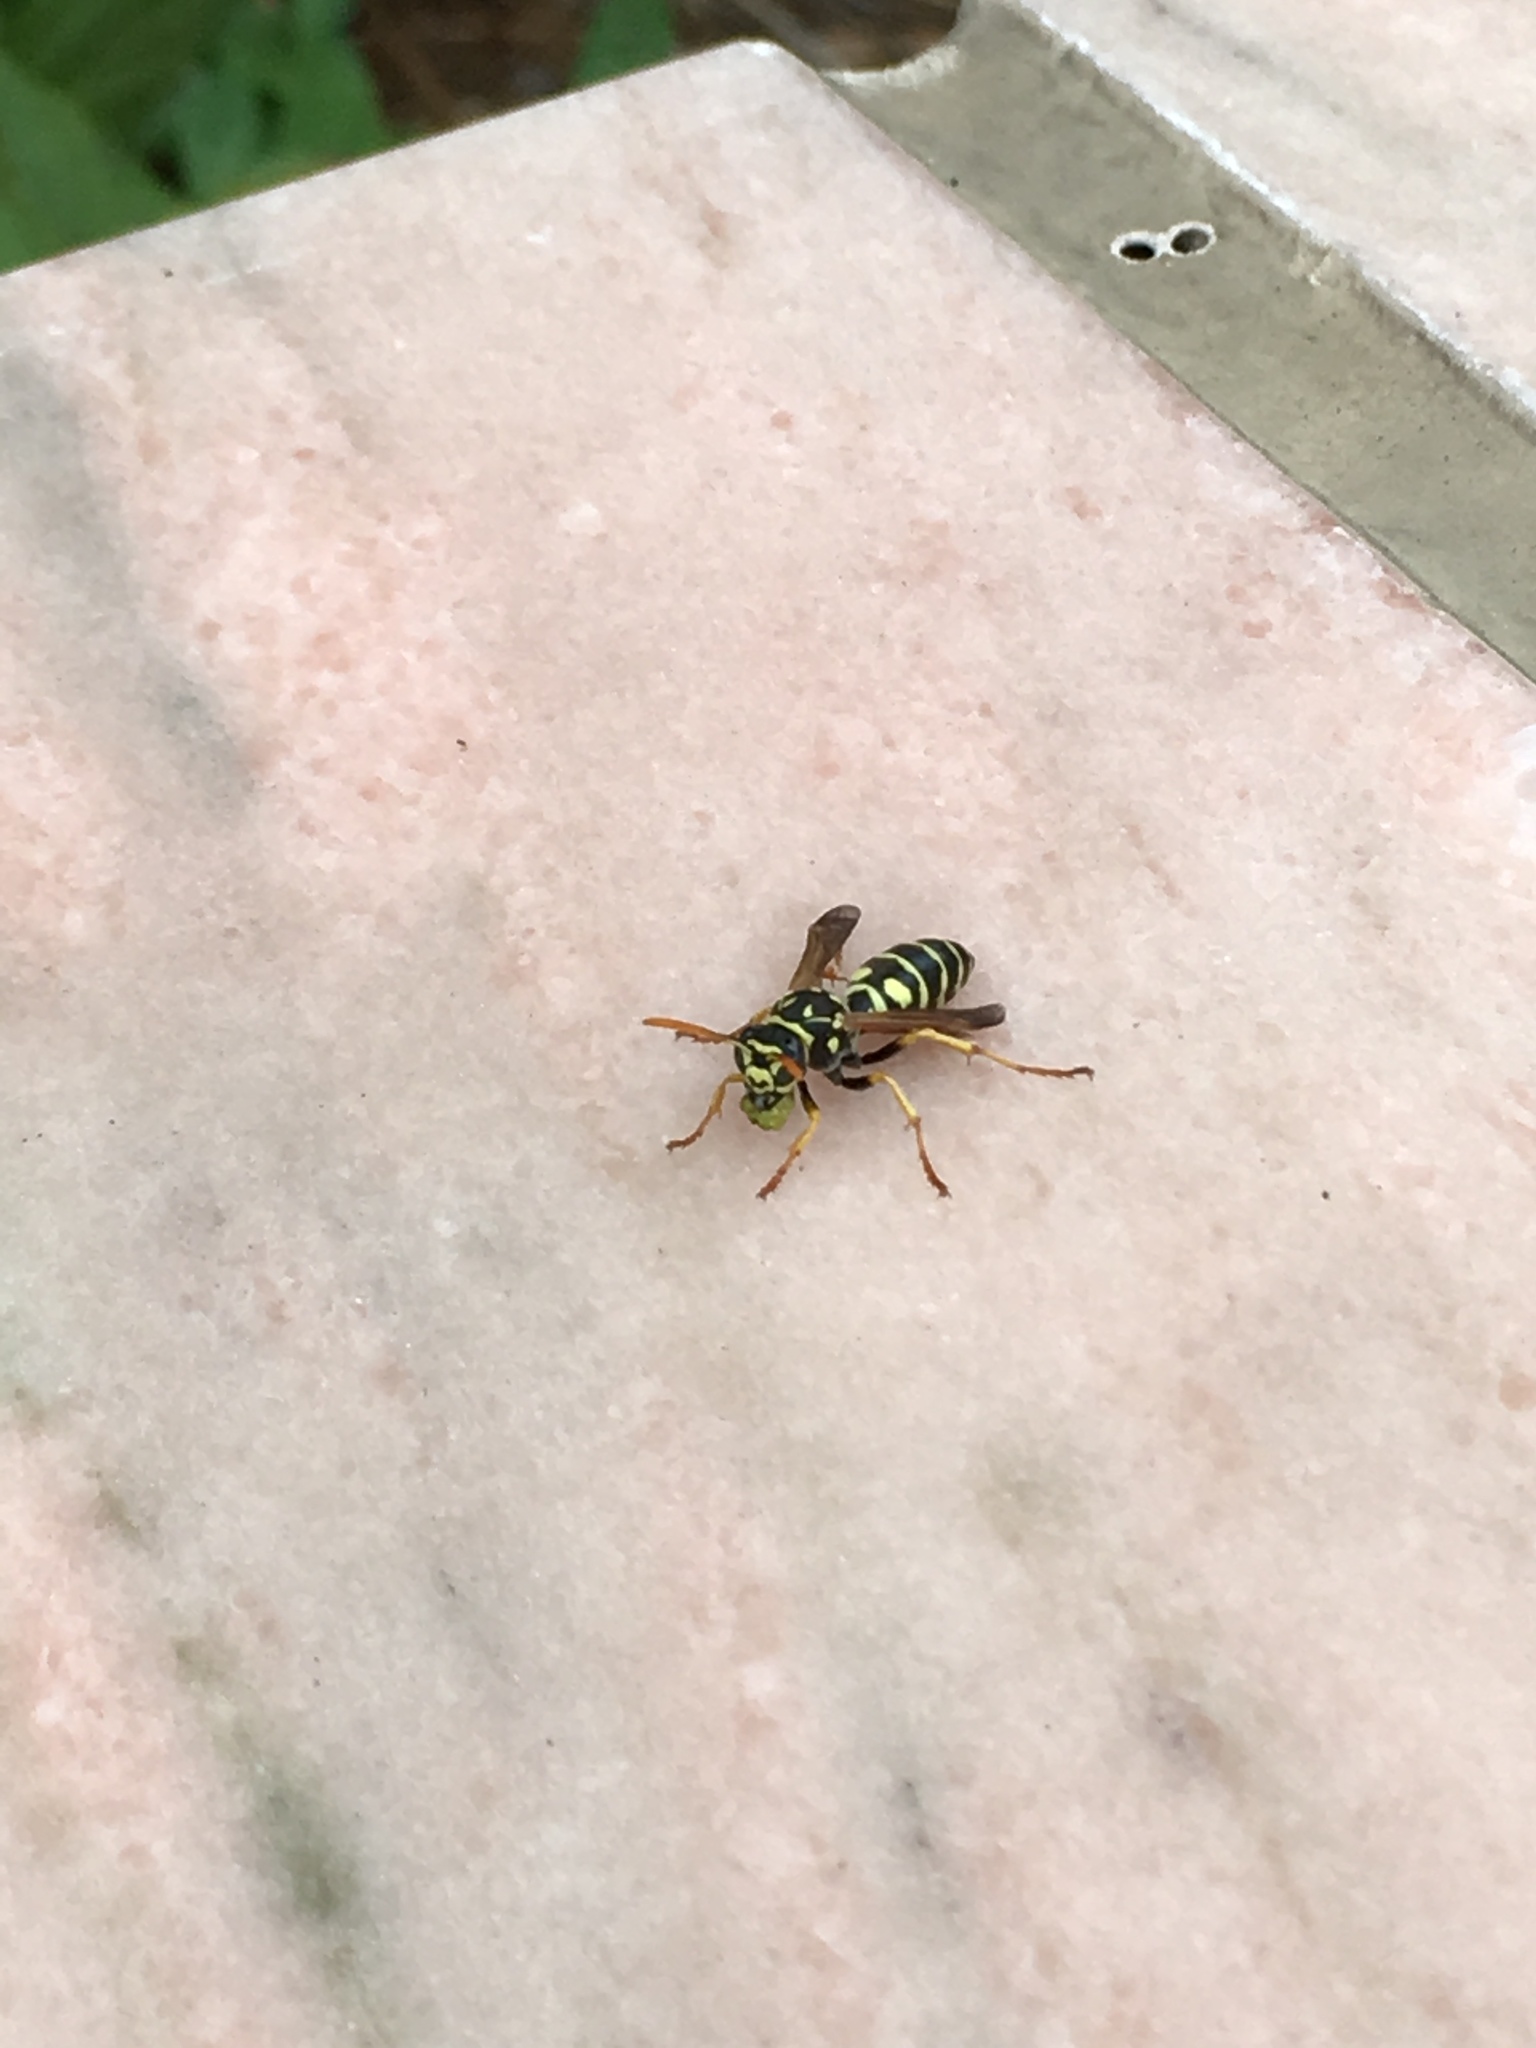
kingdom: Animalia
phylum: Arthropoda
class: Insecta
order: Hymenoptera
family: Eumenidae
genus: Polistes
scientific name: Polistes dominula
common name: Paper wasp
